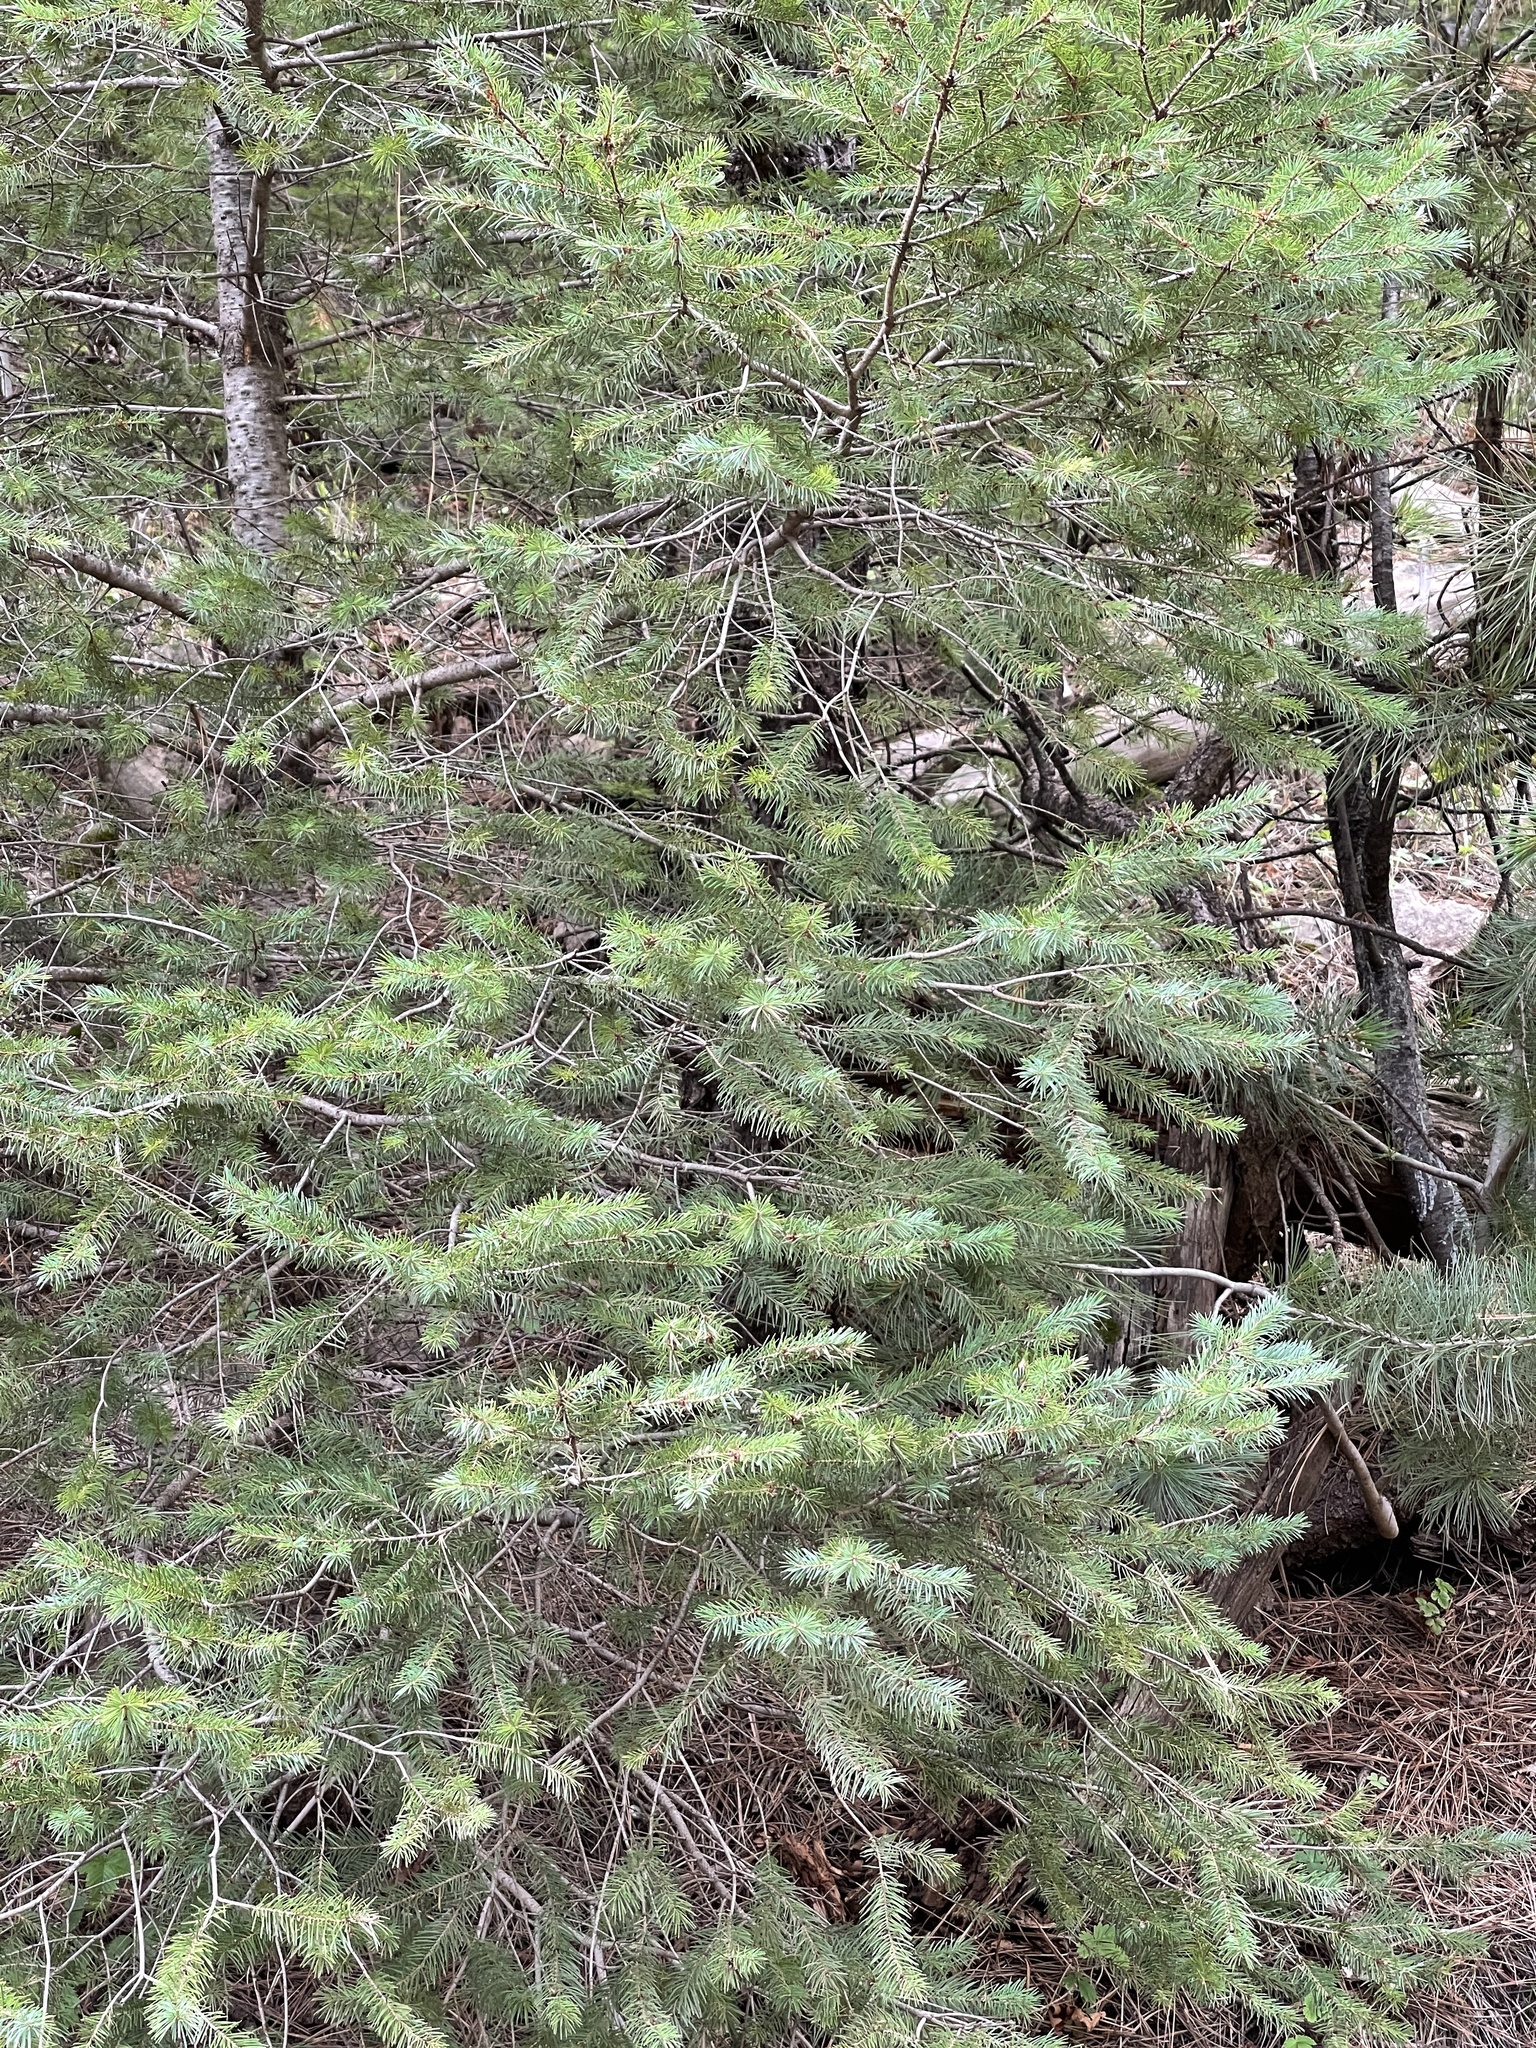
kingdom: Plantae
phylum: Tracheophyta
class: Pinopsida
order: Pinales
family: Pinaceae
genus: Pseudotsuga
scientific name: Pseudotsuga menziesii
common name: Douglas fir
